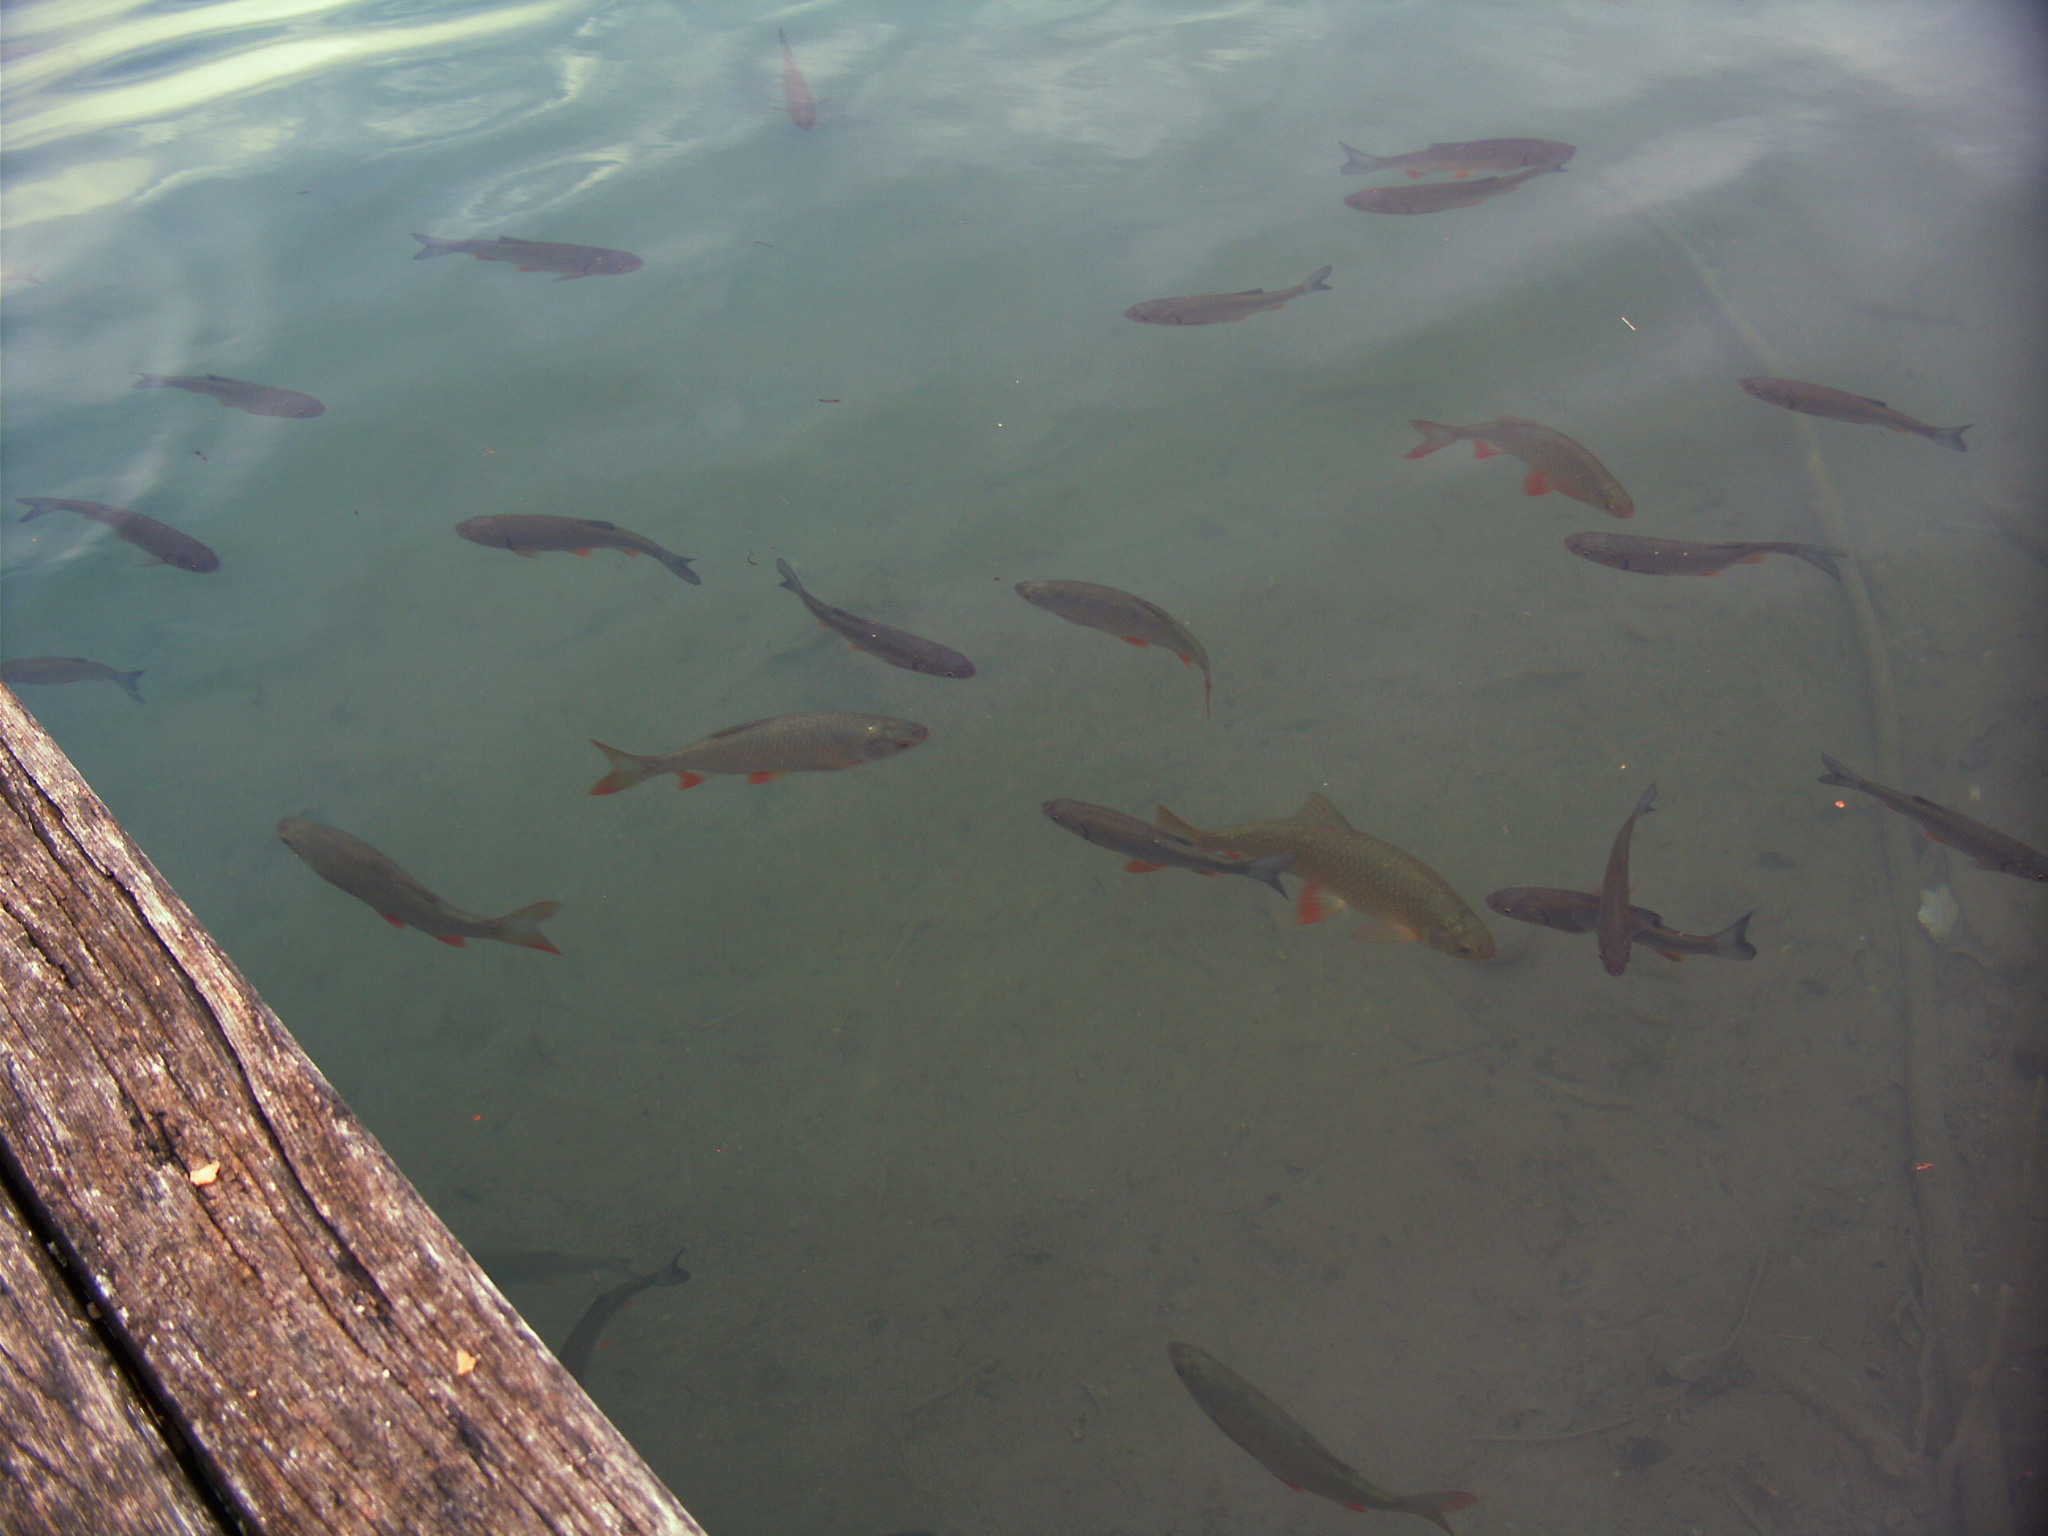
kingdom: Animalia
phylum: Chordata
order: Cypriniformes
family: Cyprinidae
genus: Scardinius
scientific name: Scardinius erythrophthalmus
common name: Rudd
